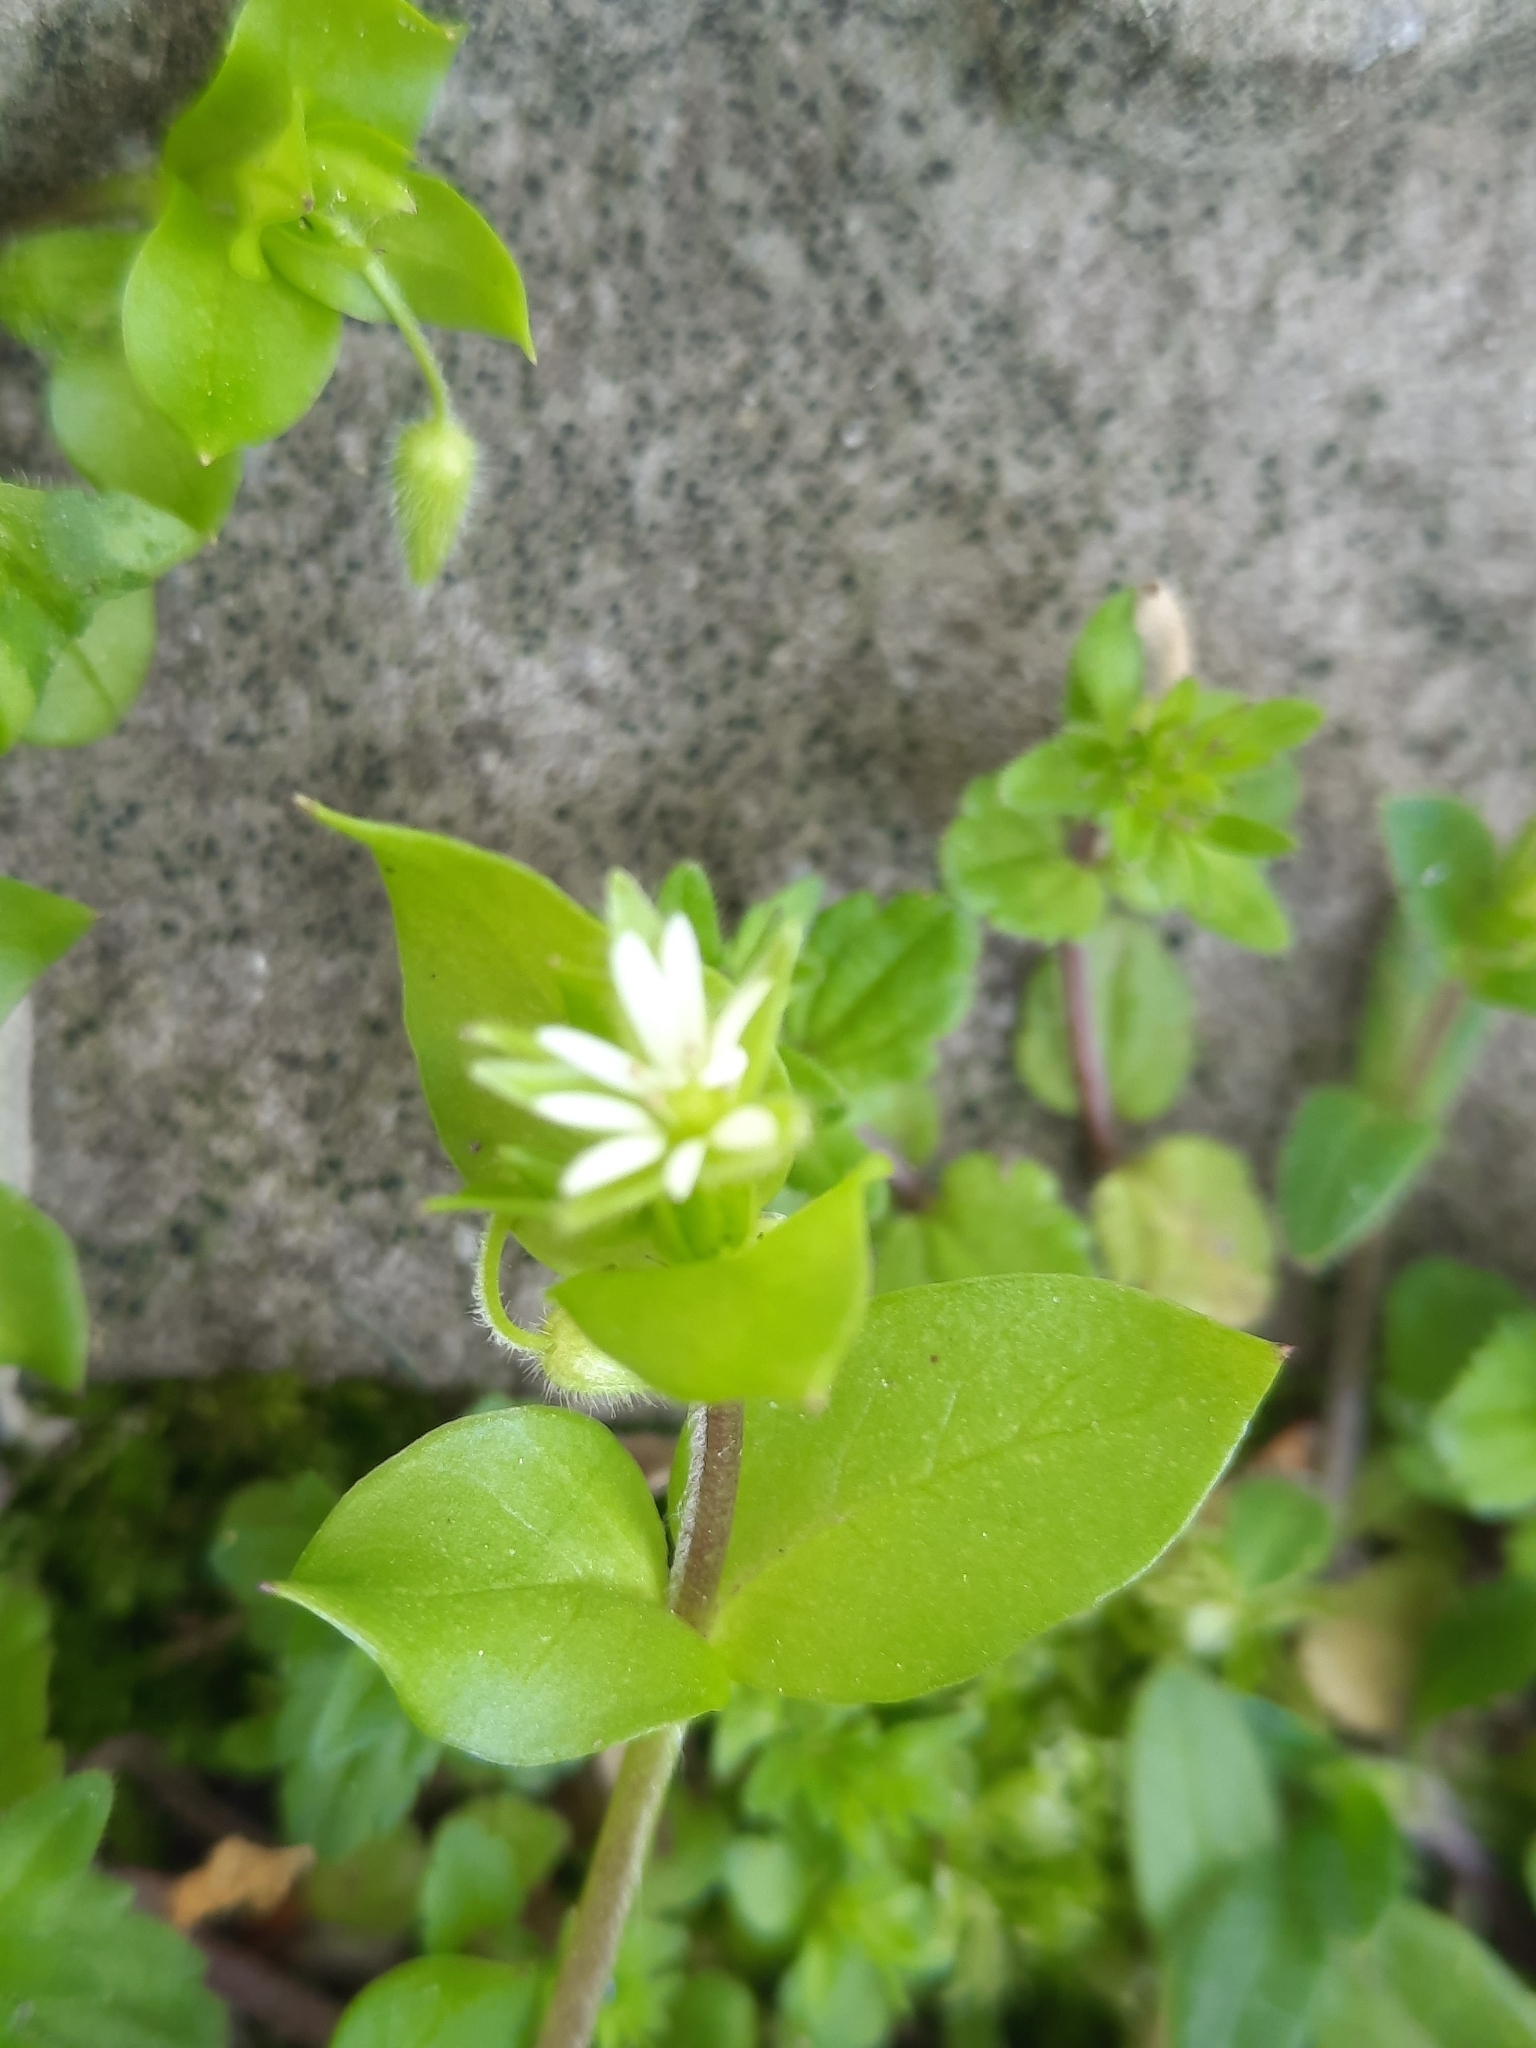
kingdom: Plantae
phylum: Tracheophyta
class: Magnoliopsida
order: Caryophyllales
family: Caryophyllaceae
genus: Stellaria
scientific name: Stellaria media
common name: Common chickweed
